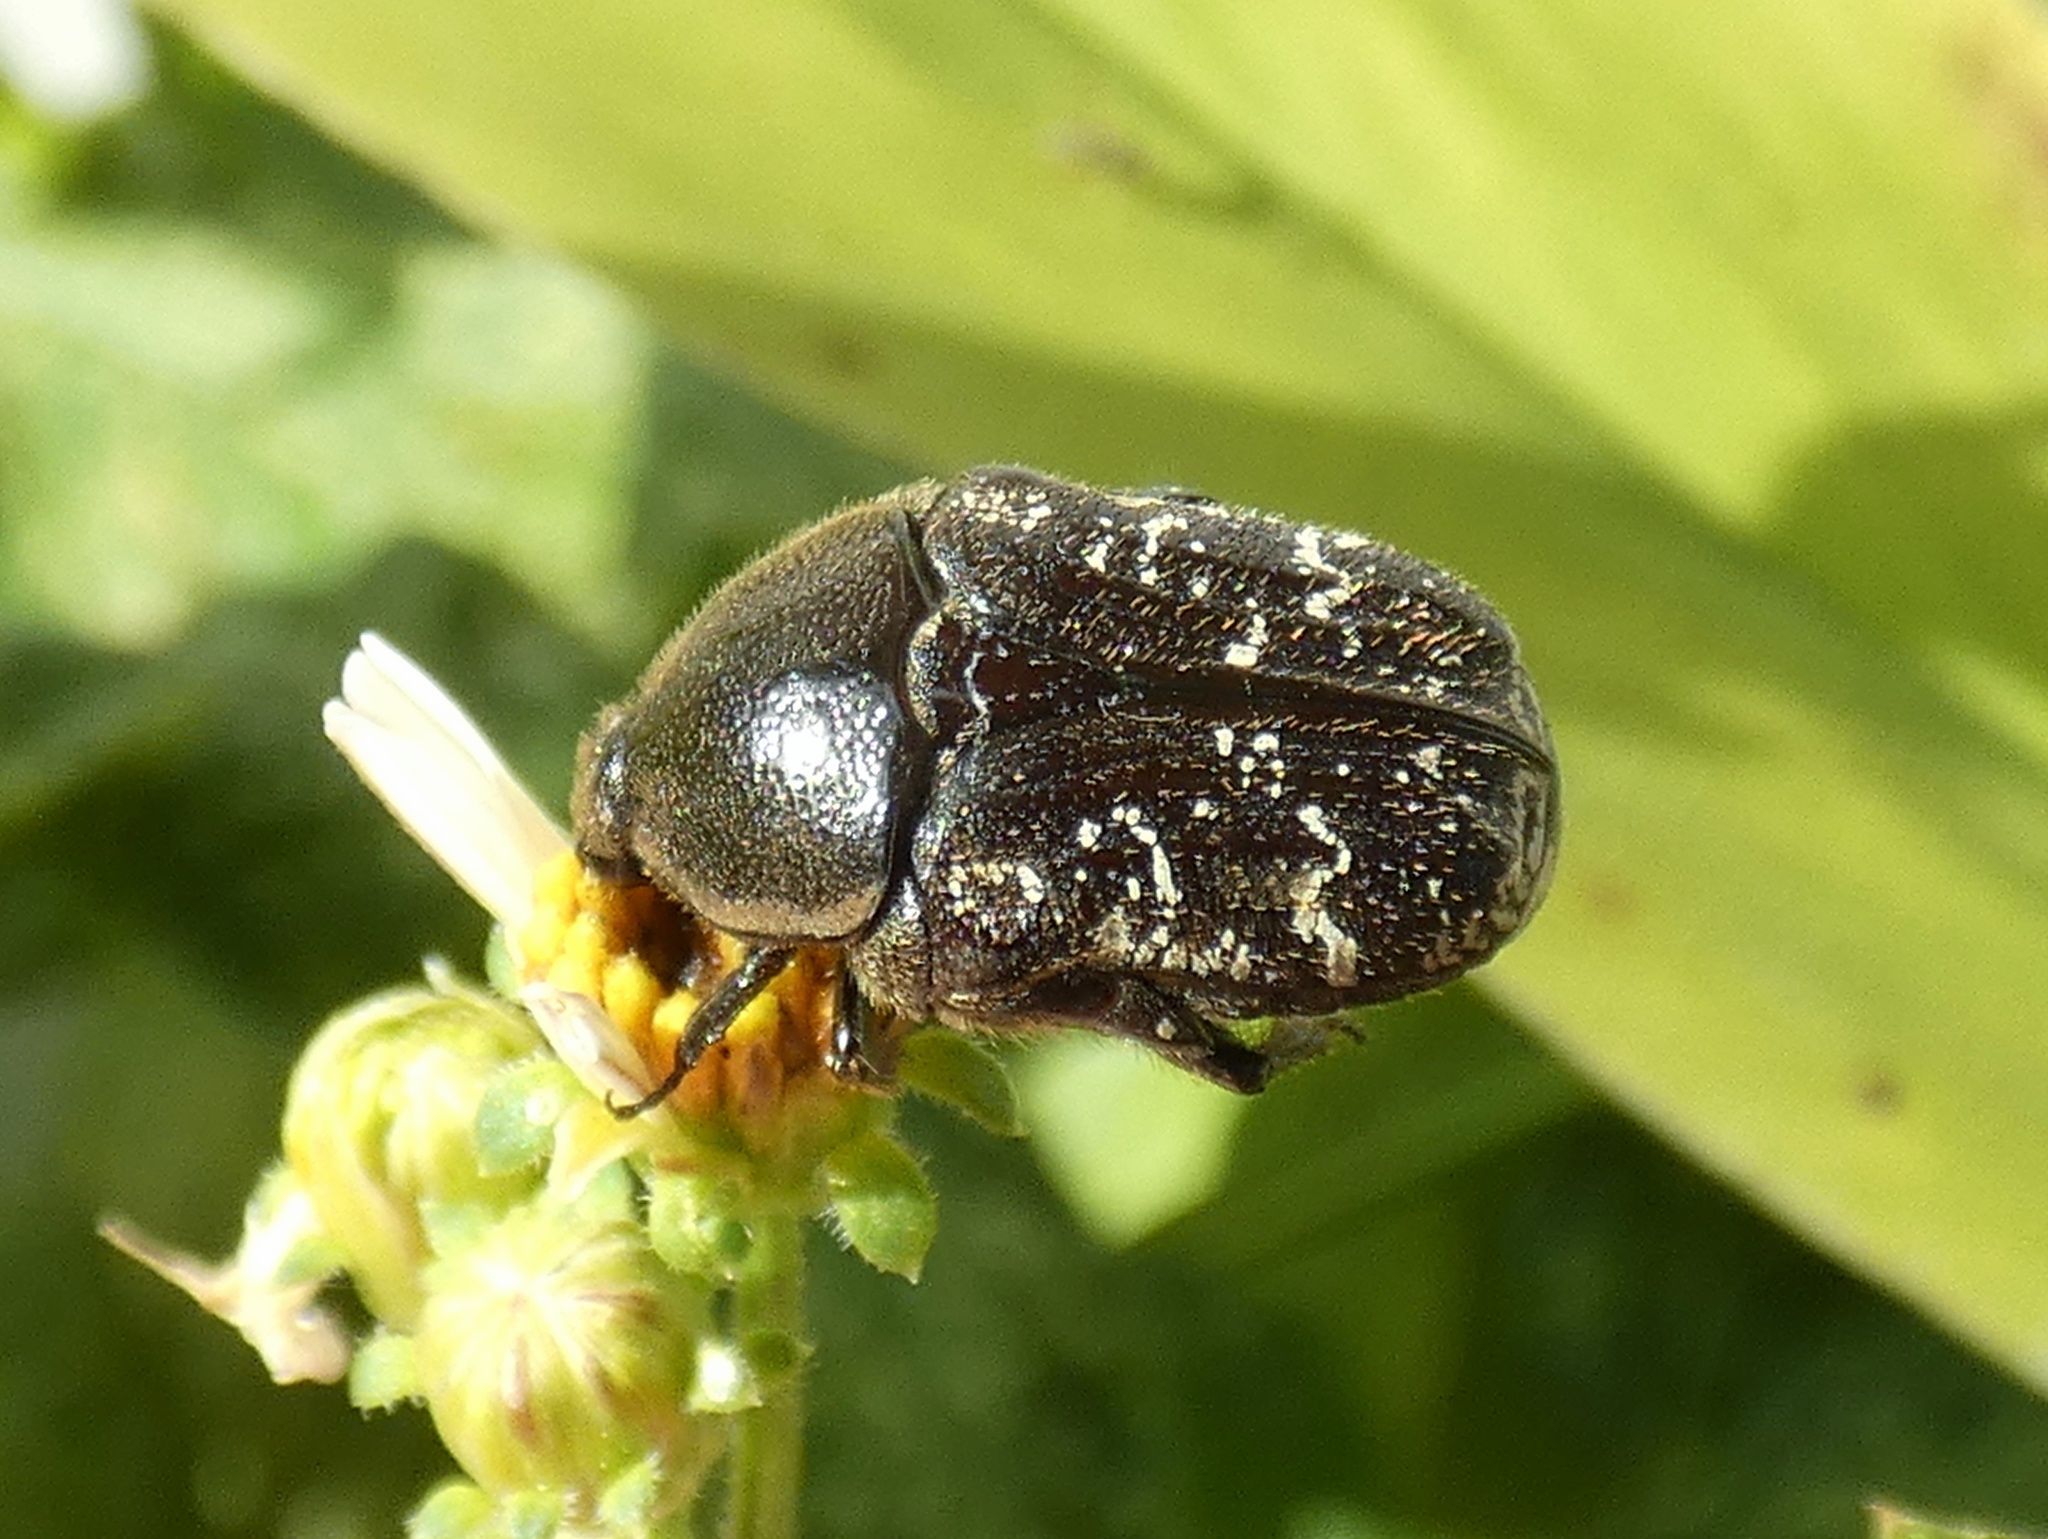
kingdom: Animalia
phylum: Arthropoda
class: Insecta
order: Coleoptera
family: Scarabaeidae
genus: Euphoria
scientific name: Euphoria sepulcralis
